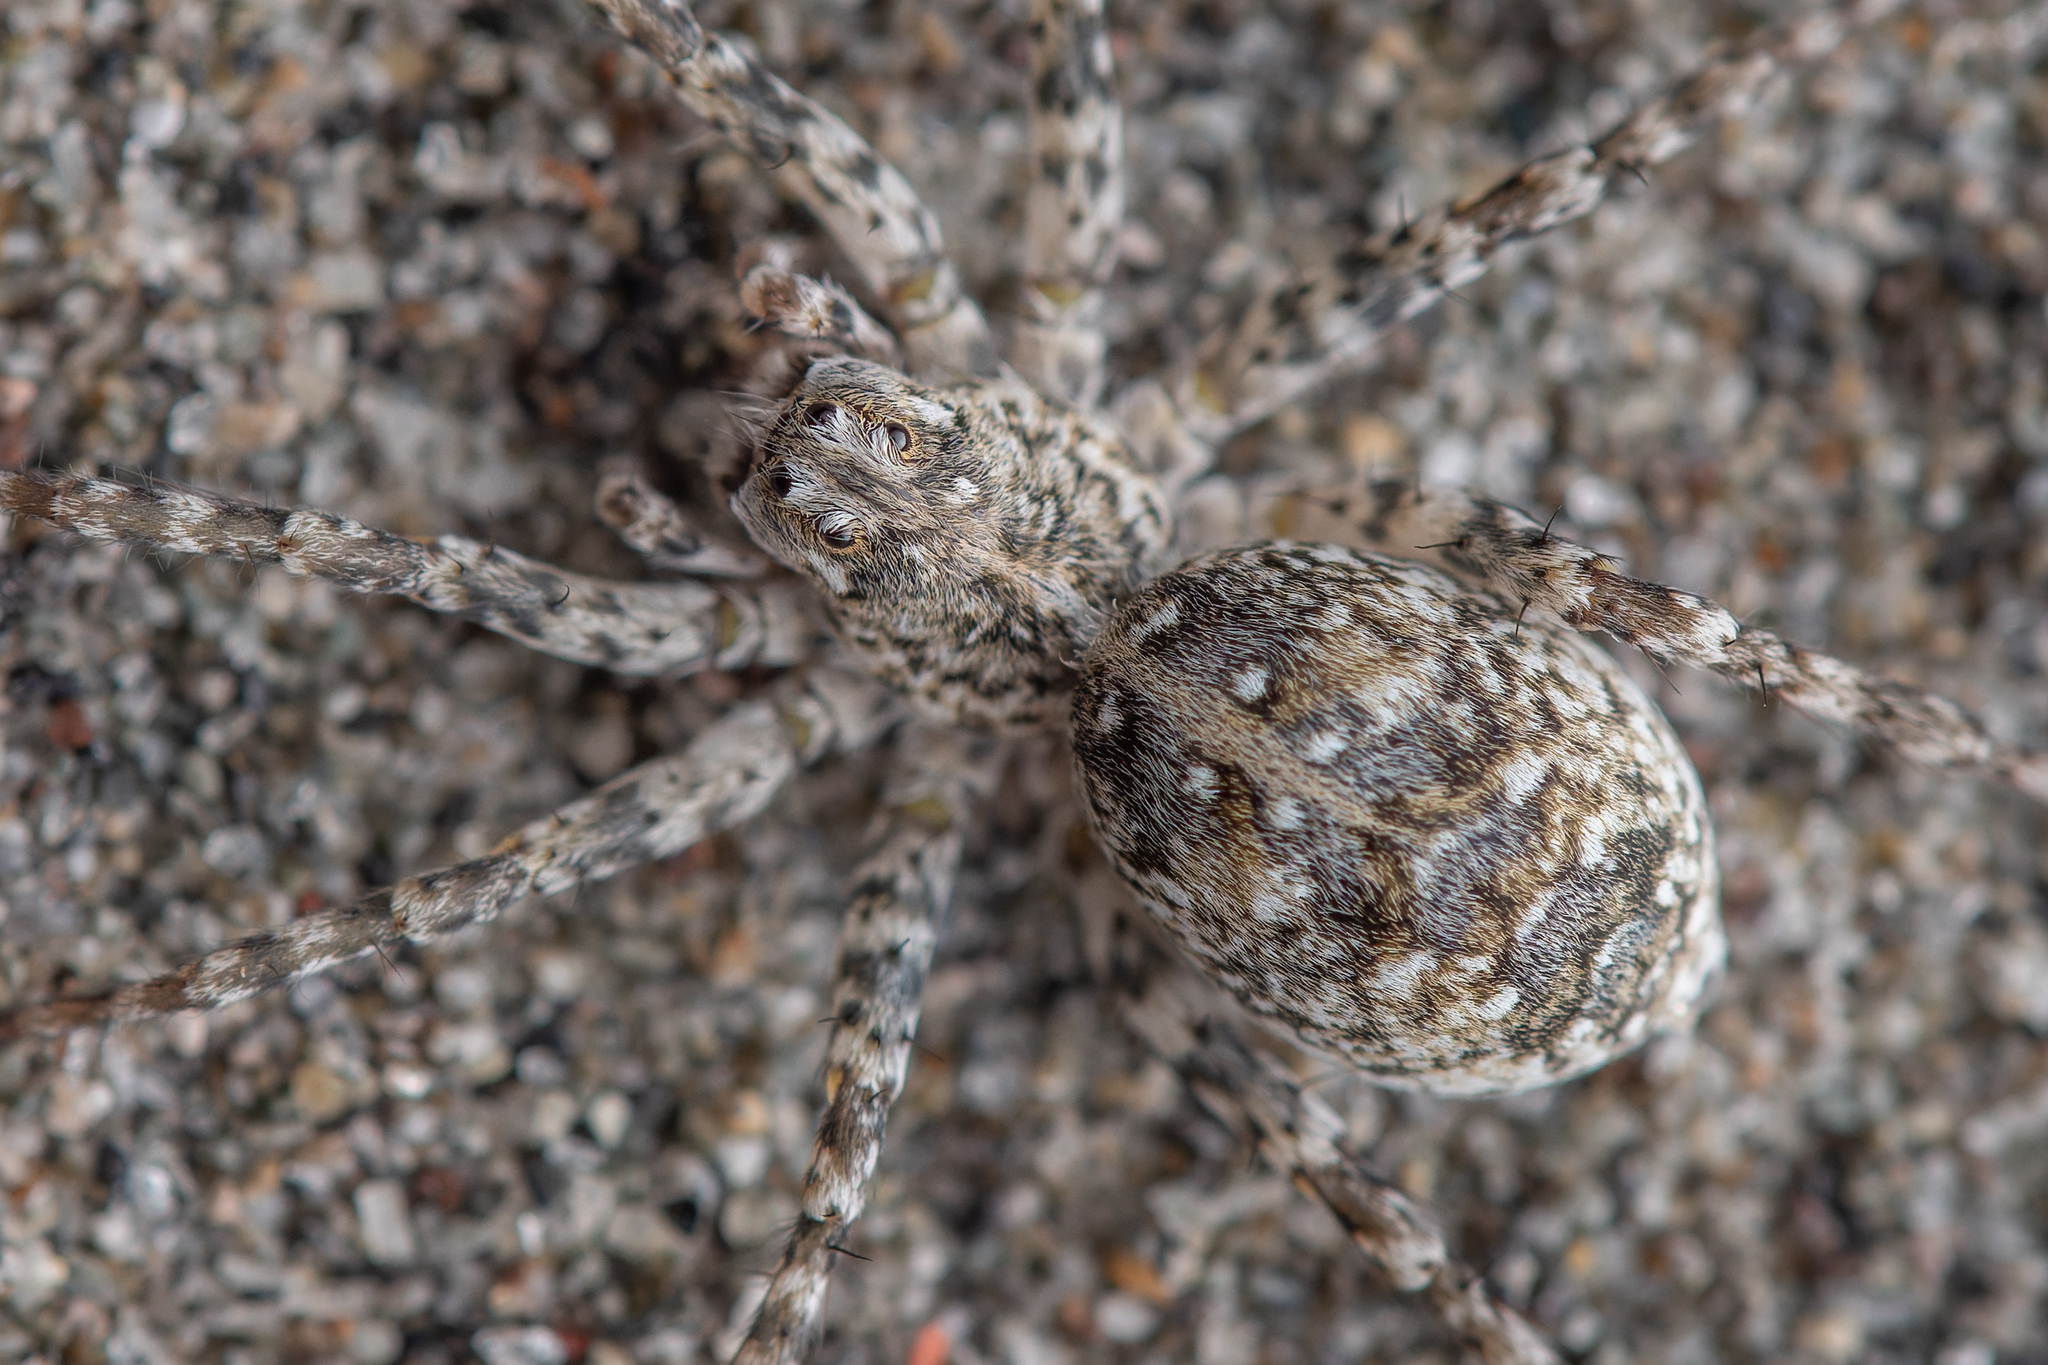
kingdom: Animalia
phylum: Arthropoda
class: Arachnida
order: Araneae
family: Lycosidae
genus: Anoteropsis
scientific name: Anoteropsis litoralis
